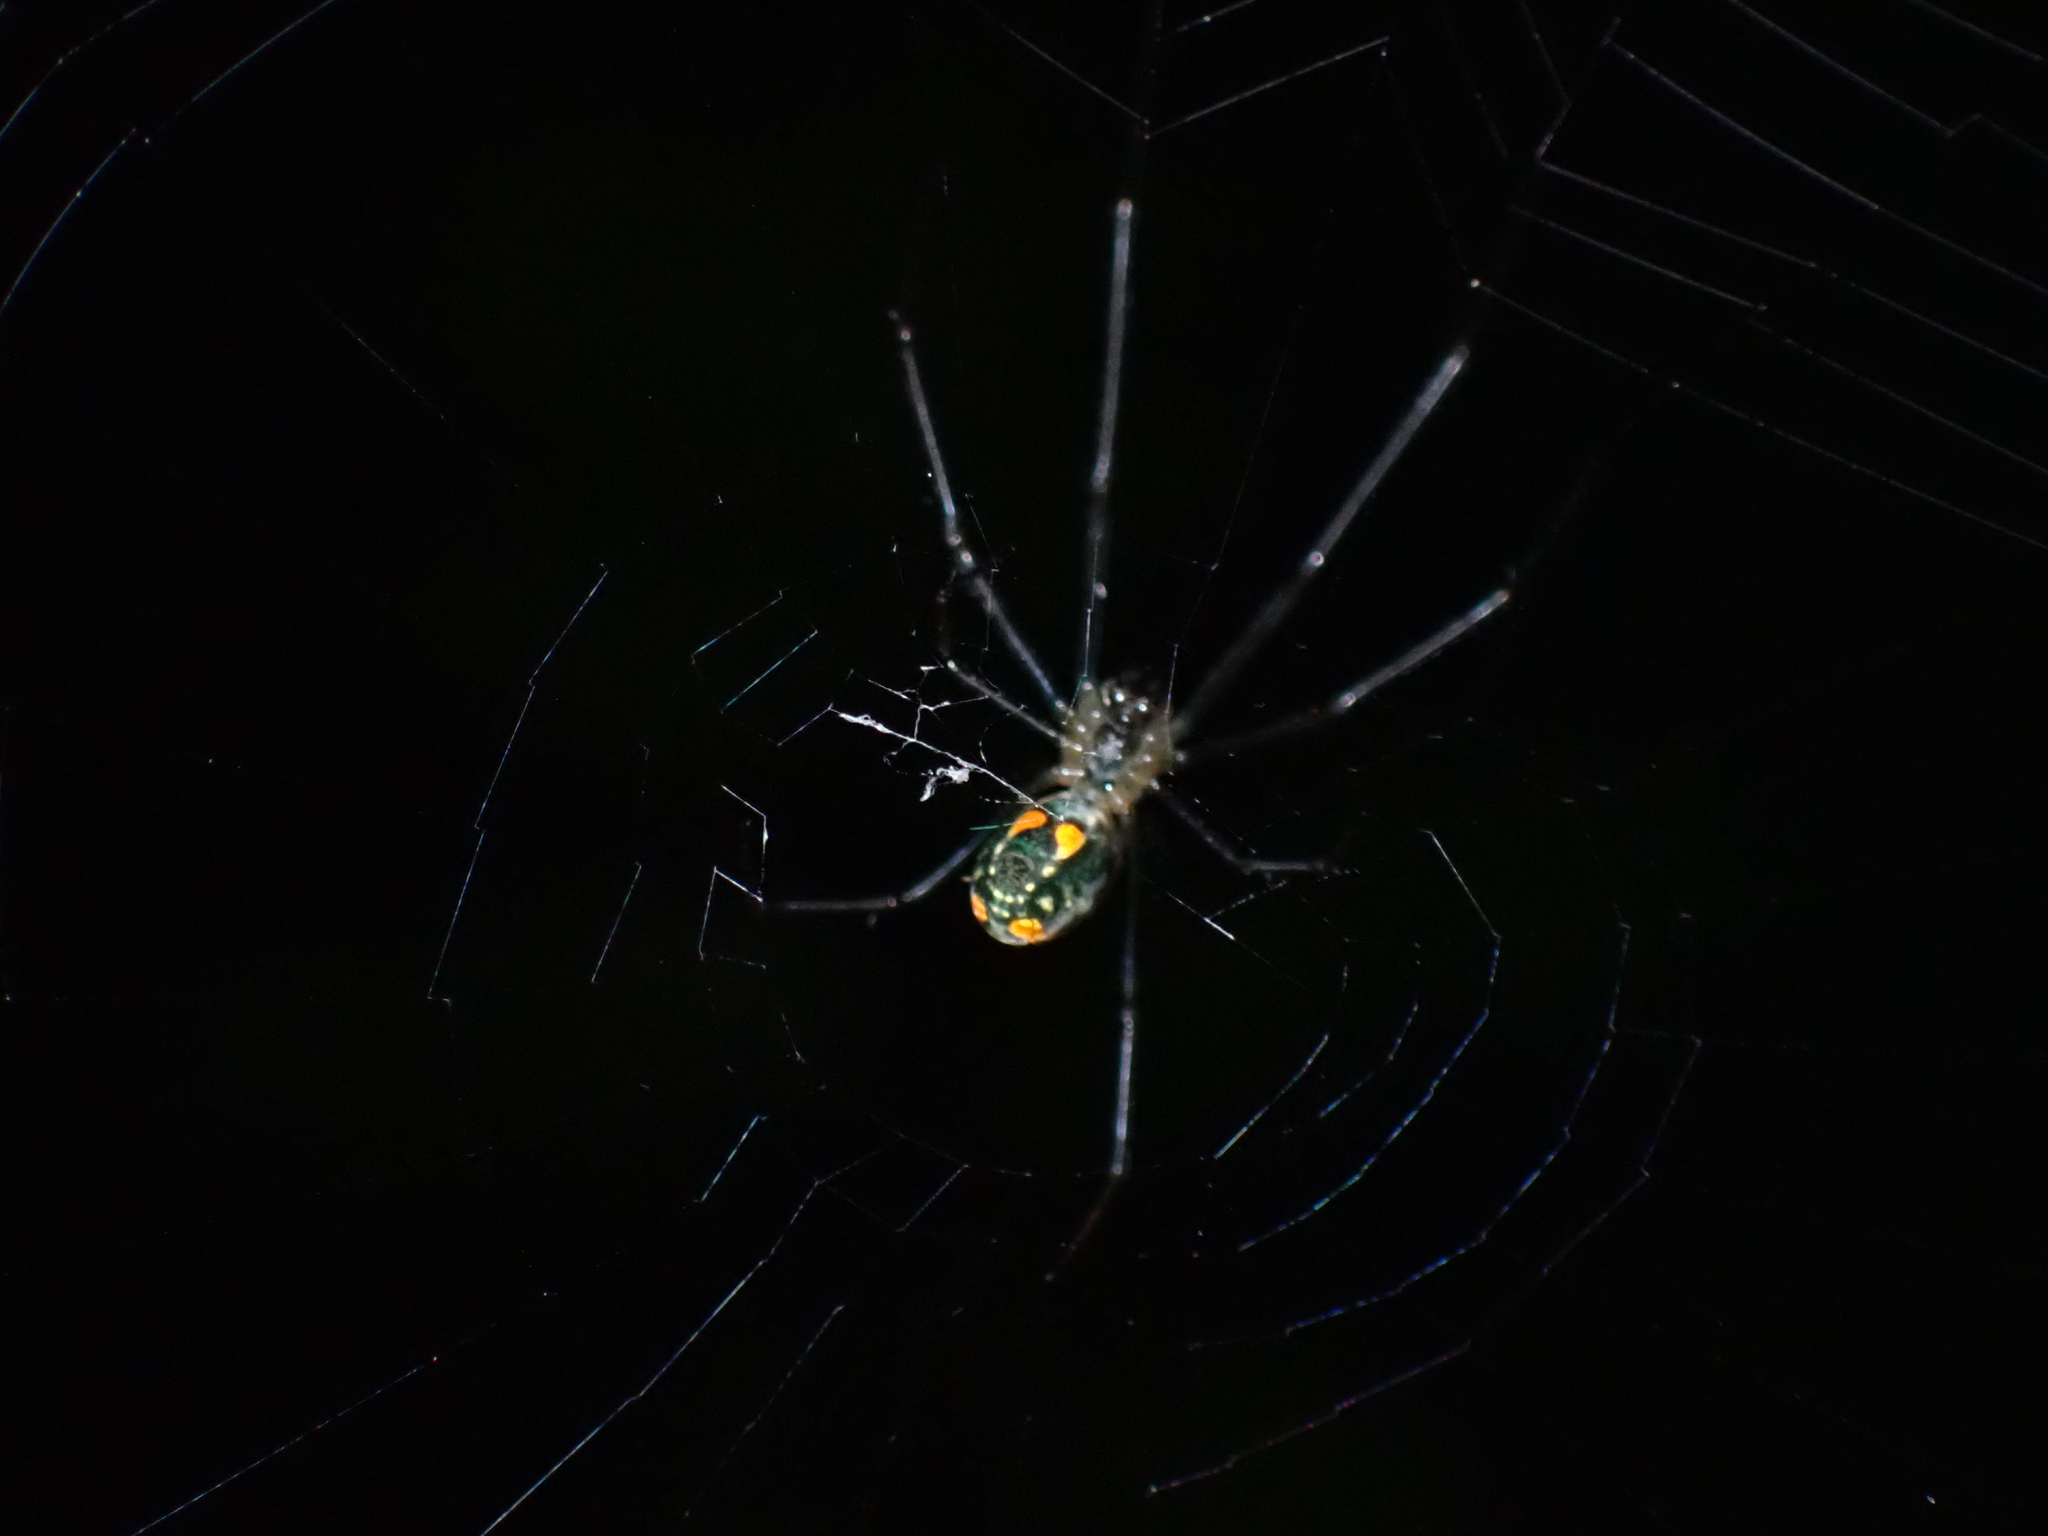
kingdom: Animalia
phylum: Arthropoda
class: Arachnida
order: Araneae
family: Tetragnathidae
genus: Leucauge
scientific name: Leucauge hebridisiana
